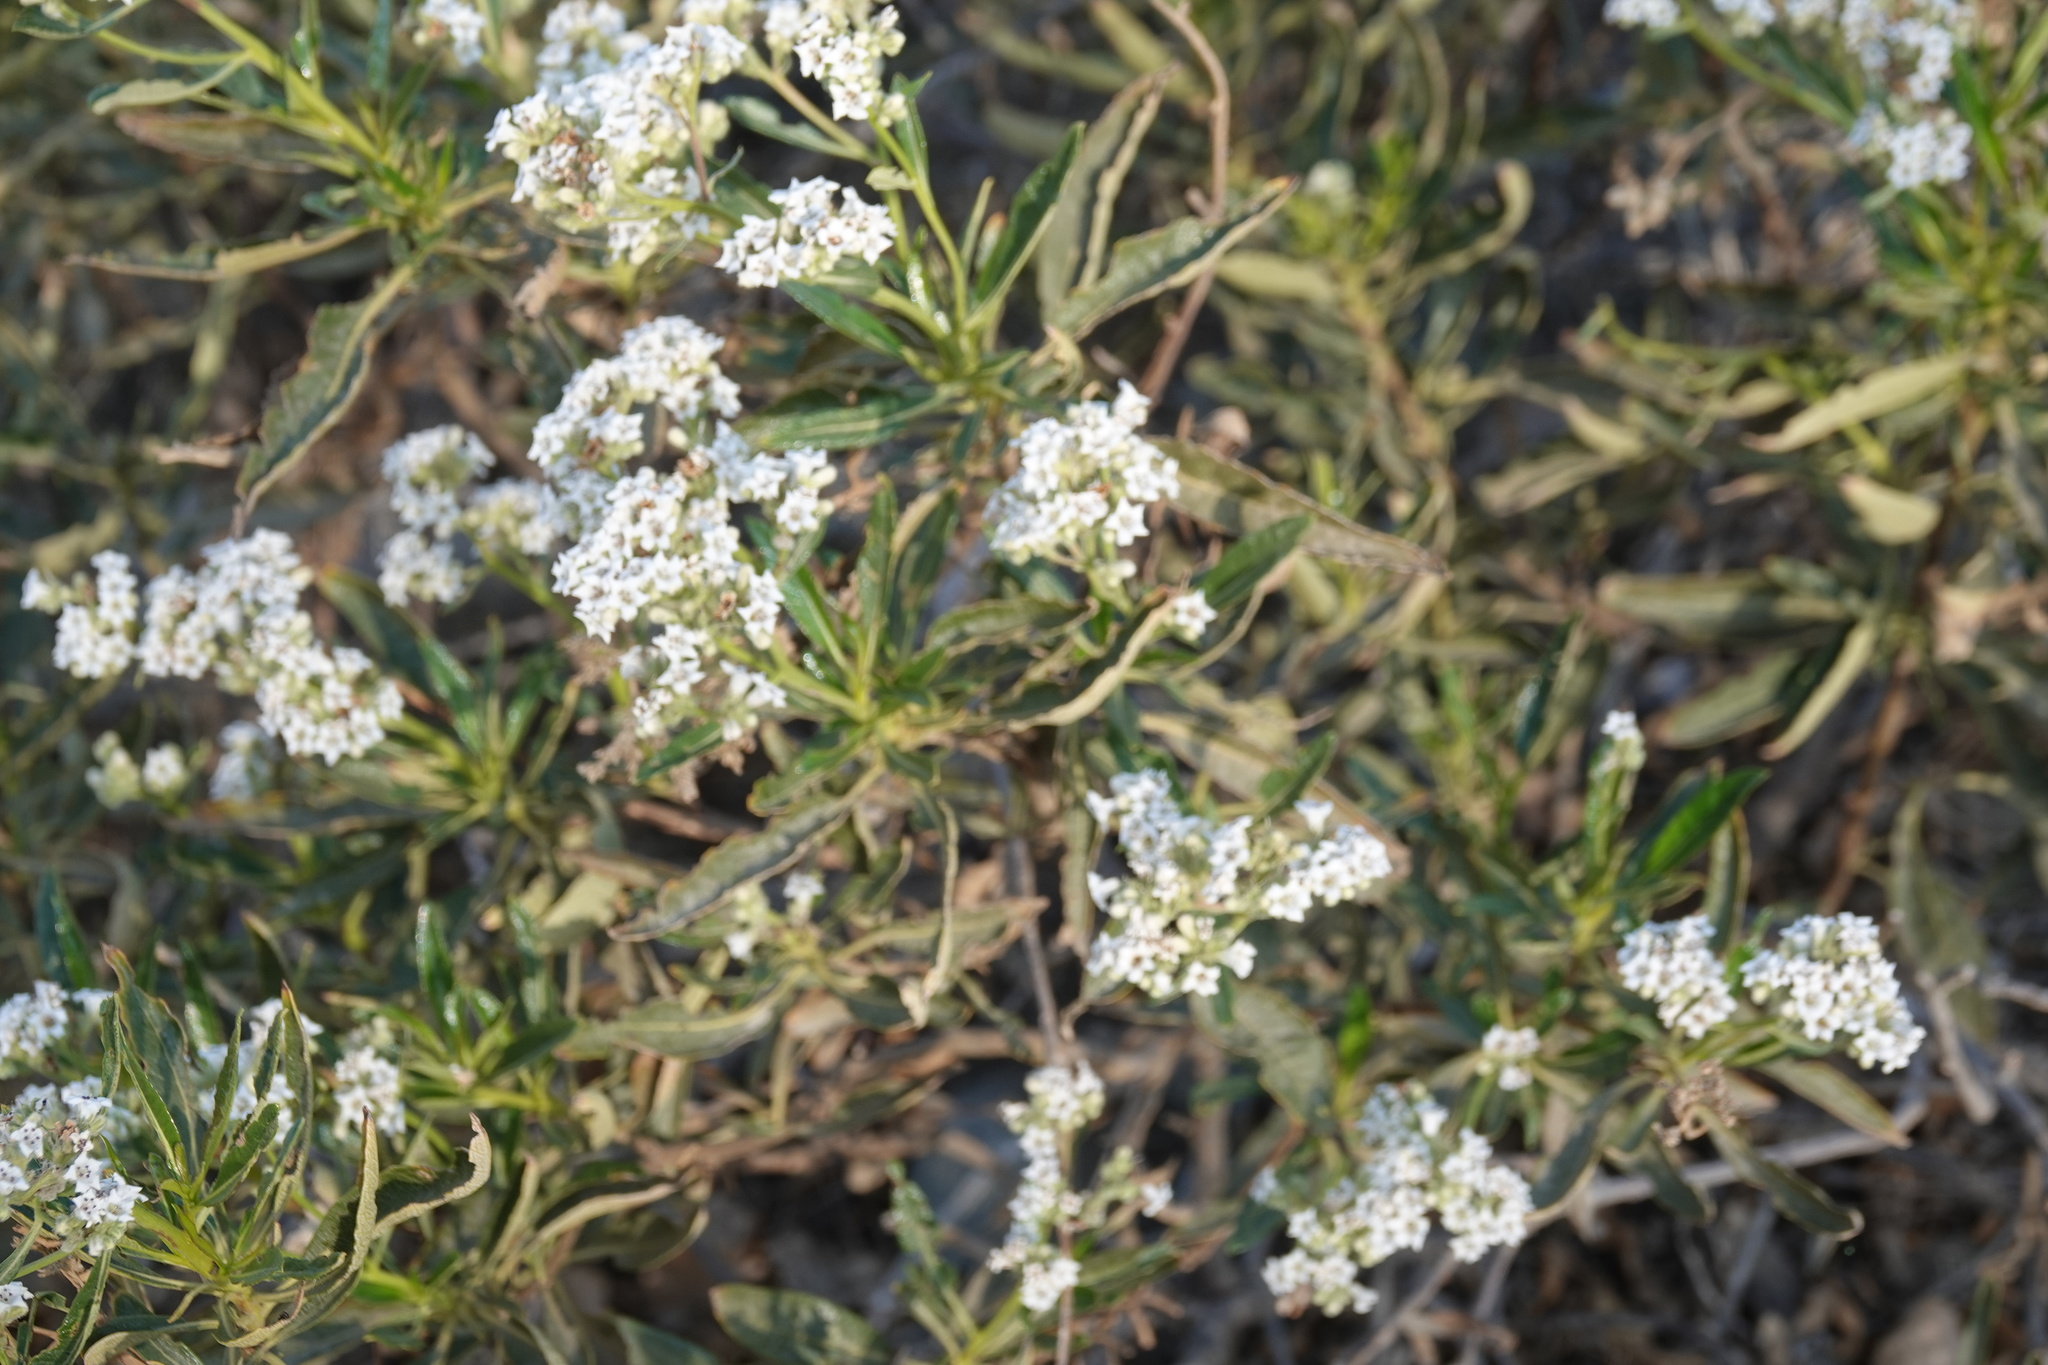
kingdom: Plantae
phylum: Tracheophyta
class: Magnoliopsida
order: Boraginales
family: Namaceae
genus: Eriodictyon
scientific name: Eriodictyon trichocalyx
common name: Hairy yerba-santa
